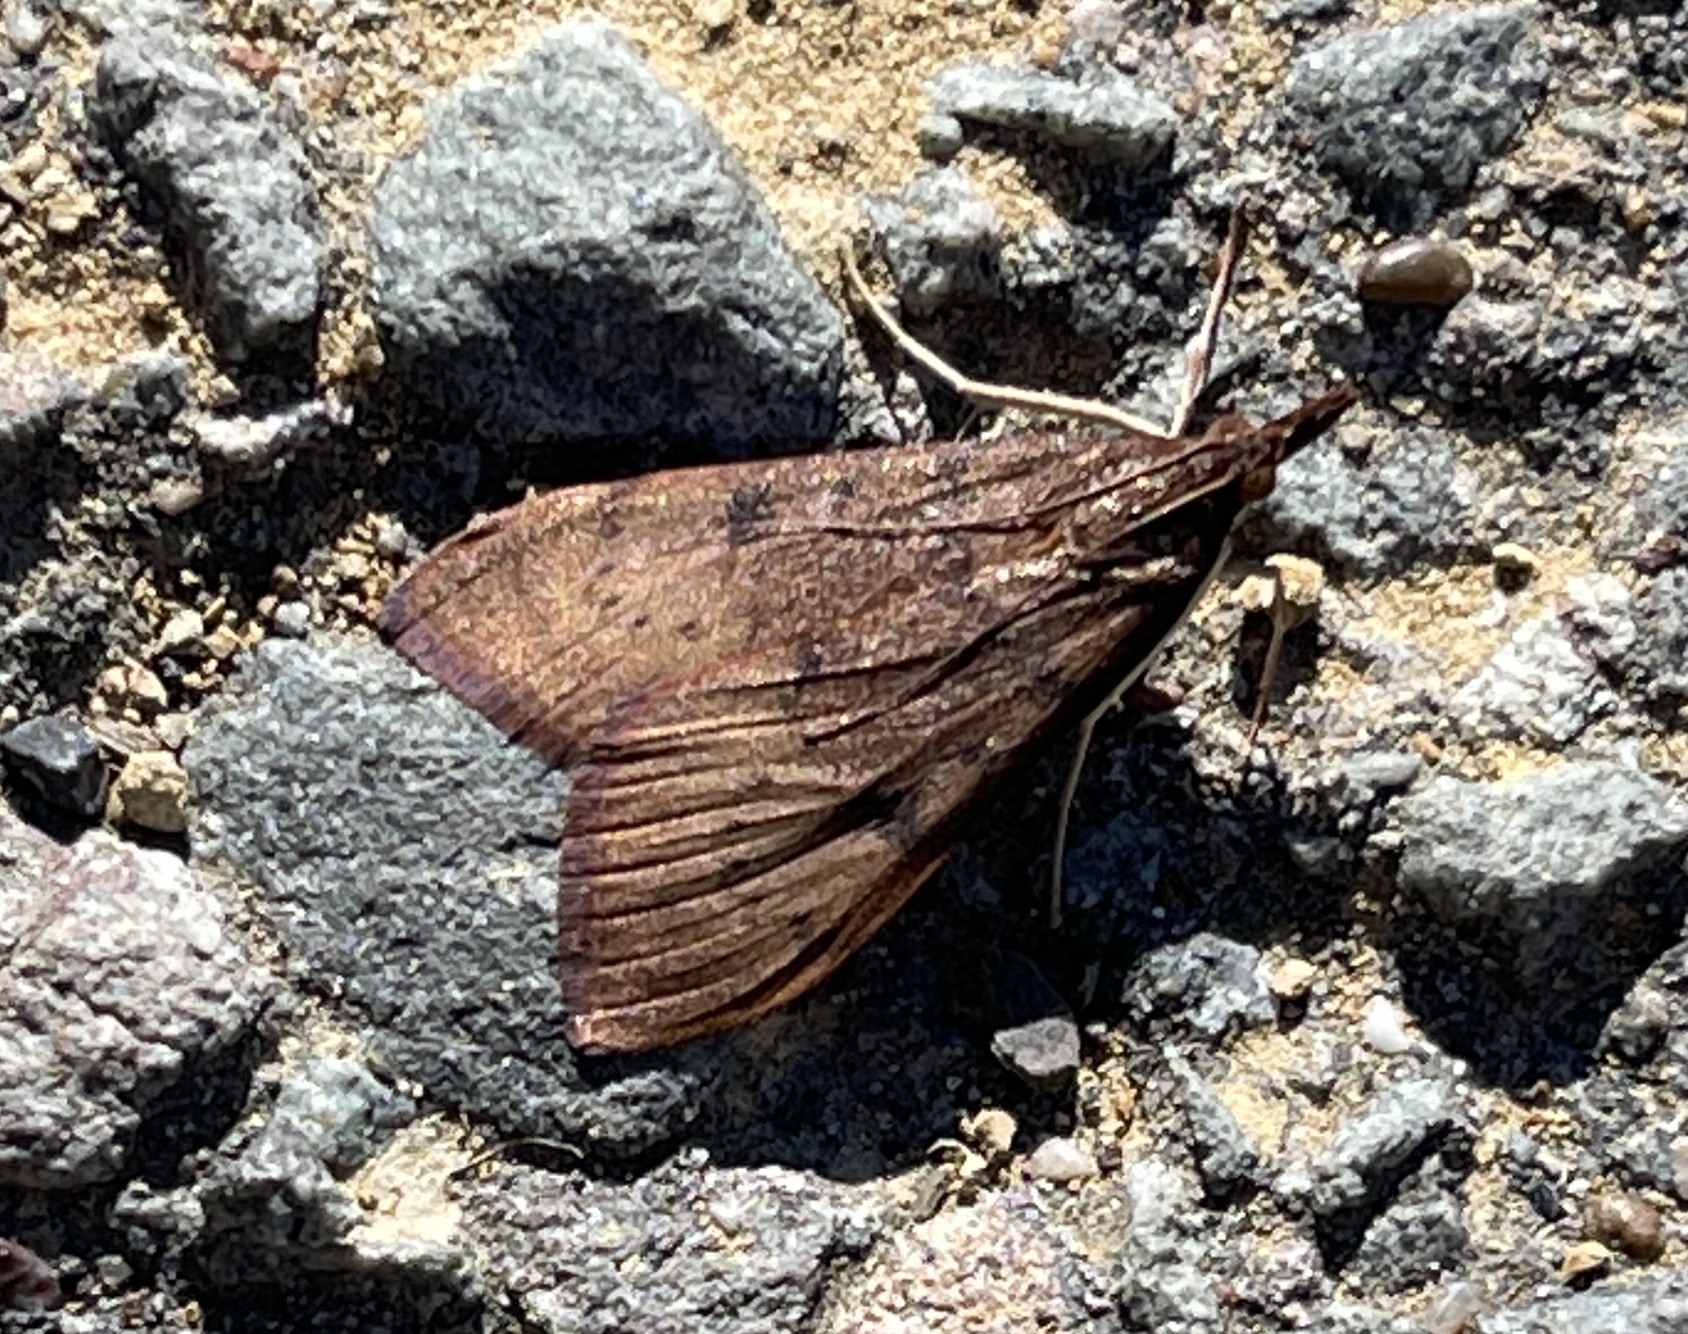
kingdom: Animalia
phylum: Arthropoda
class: Insecta
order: Lepidoptera
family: Crambidae
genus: Uresiphita
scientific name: Uresiphita reversalis
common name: Genista broom moth
